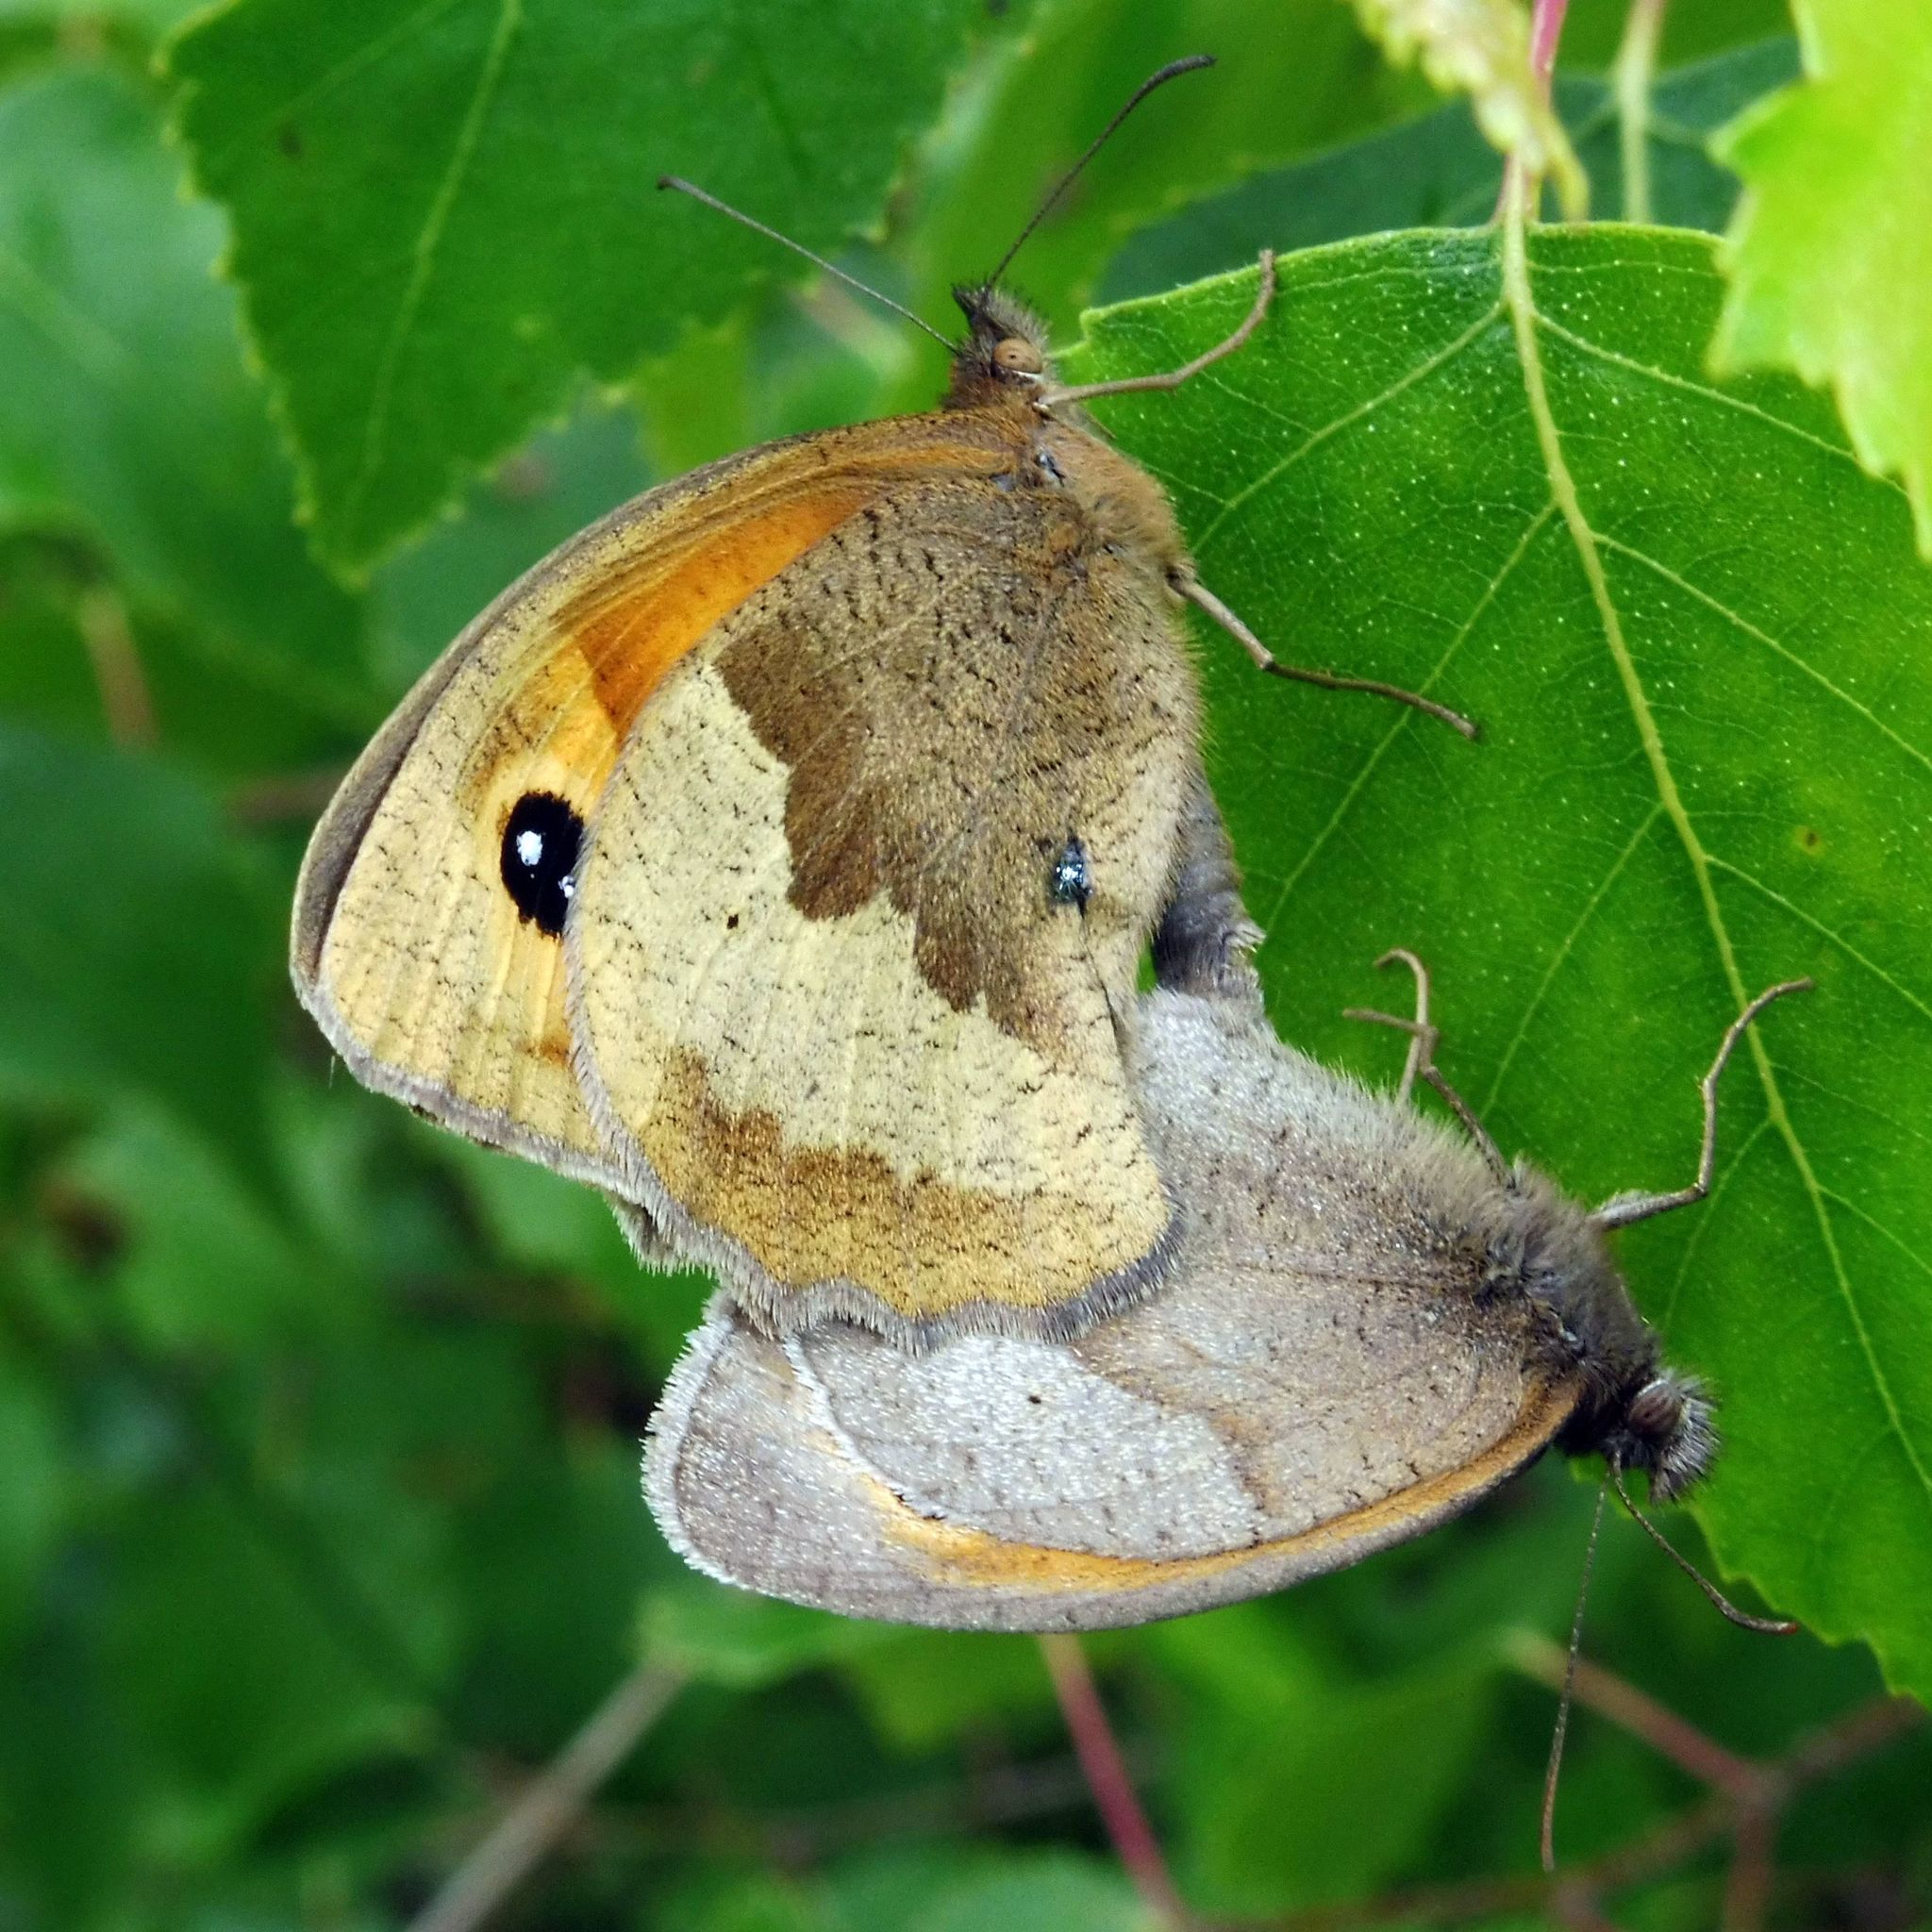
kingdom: Animalia
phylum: Arthropoda
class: Insecta
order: Lepidoptera
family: Nymphalidae
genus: Maniola
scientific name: Maniola jurtina
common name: Meadow brown
